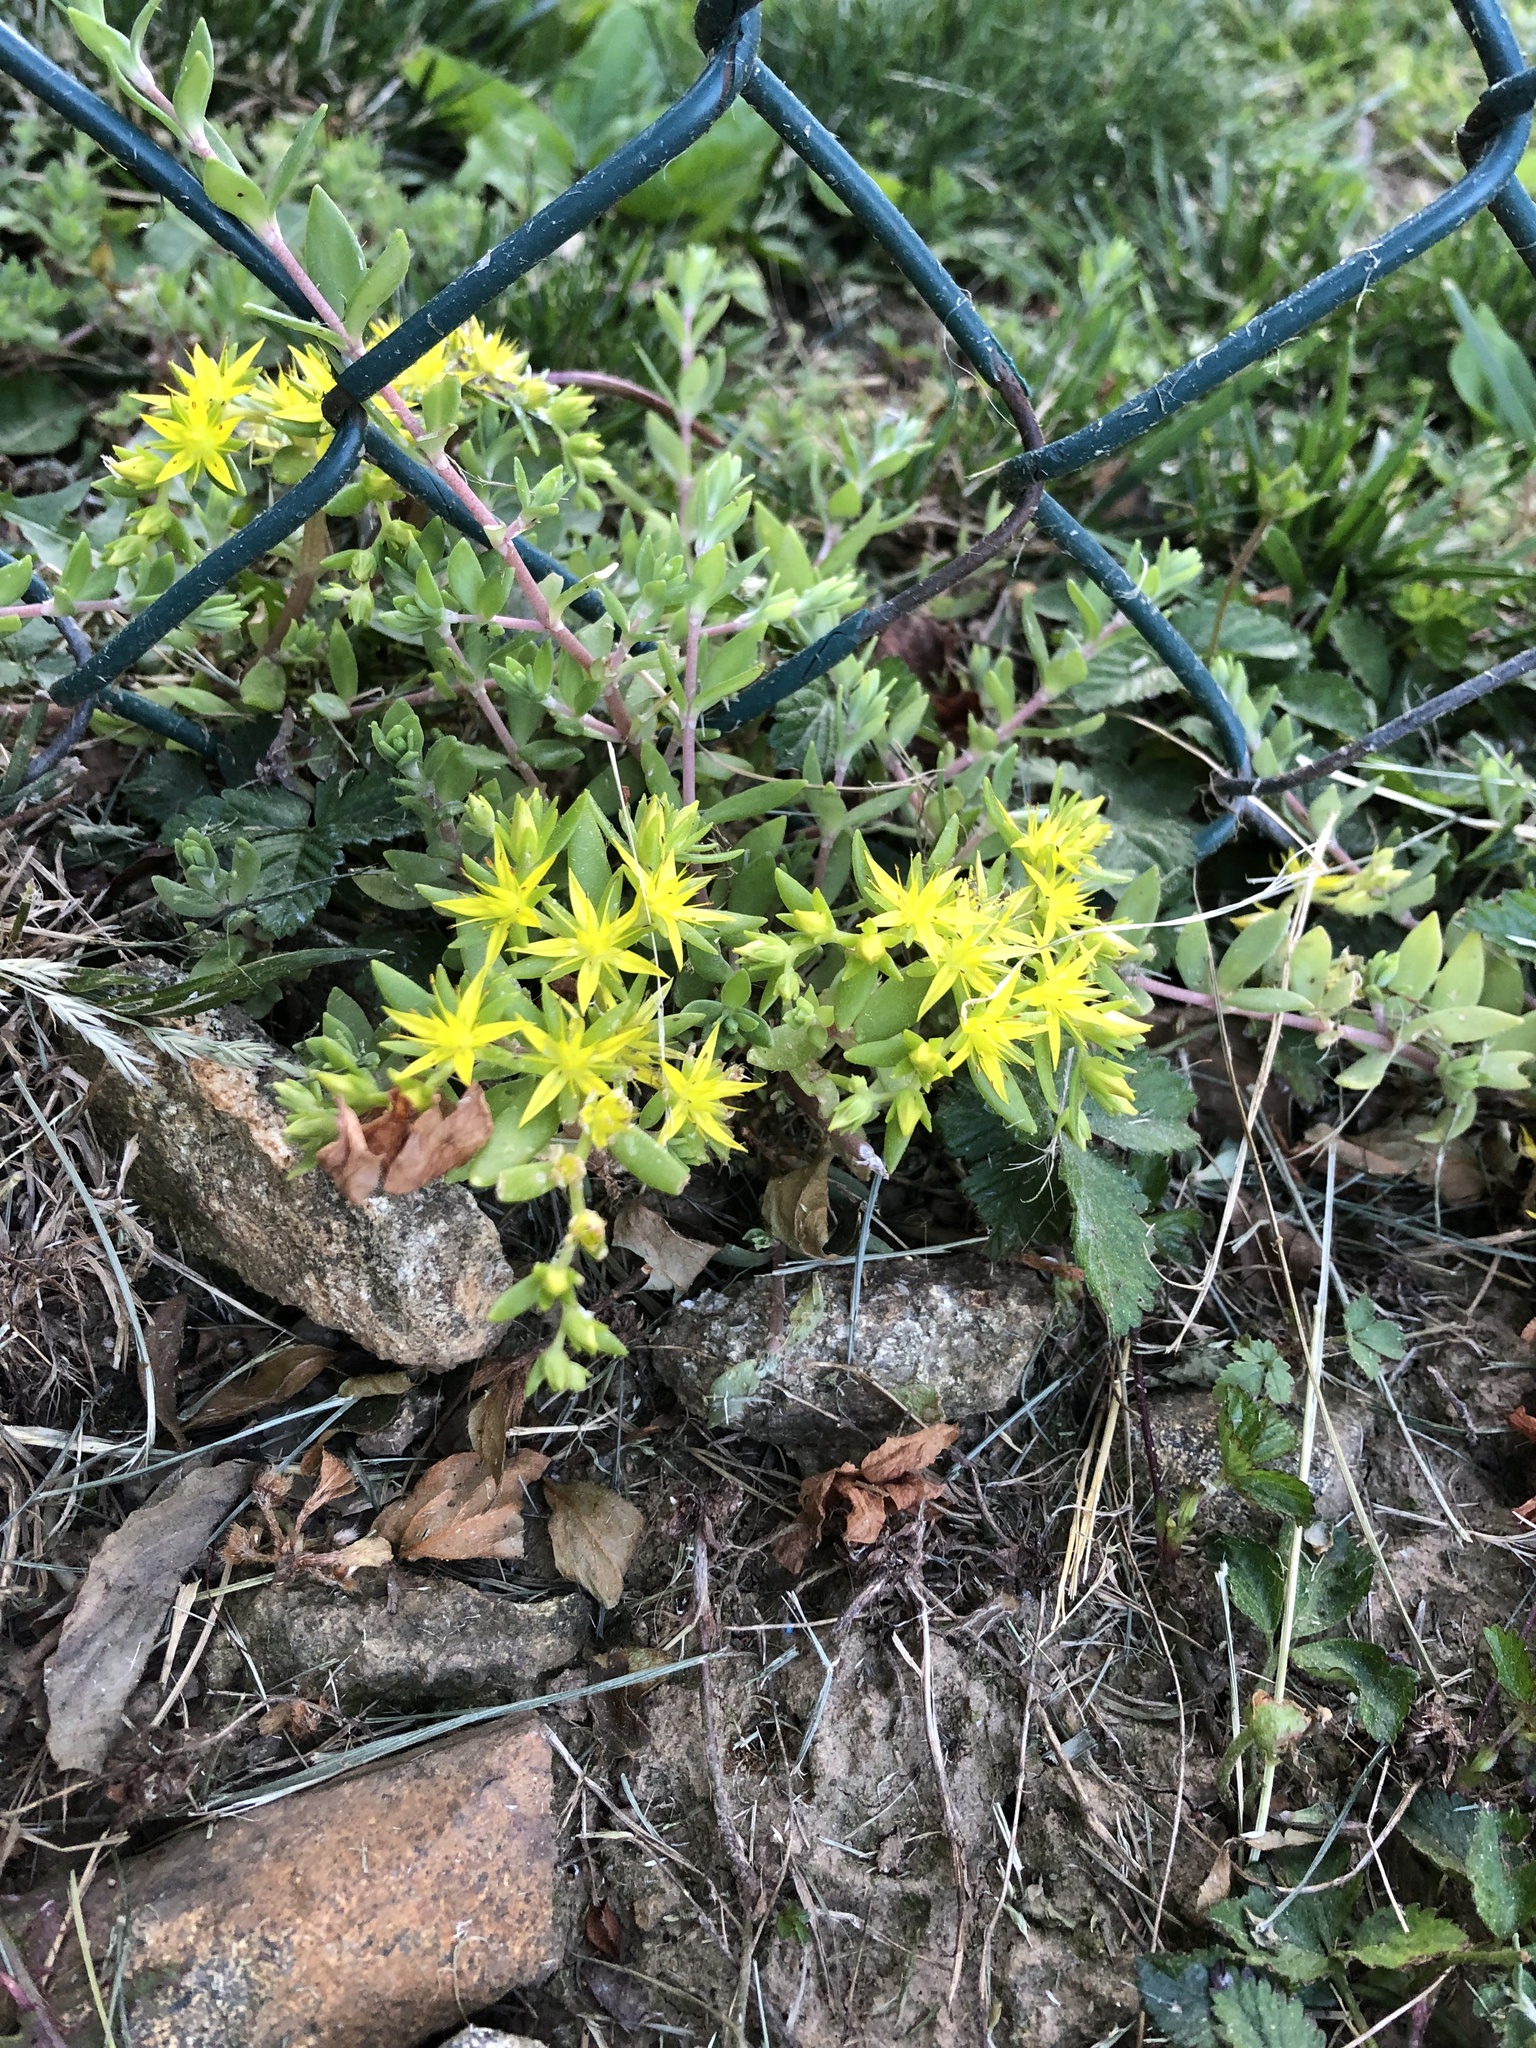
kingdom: Plantae
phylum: Tracheophyta
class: Magnoliopsida
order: Saxifragales
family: Crassulaceae
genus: Sedum
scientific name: Sedum sarmentosum
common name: Stringy stonecrop
